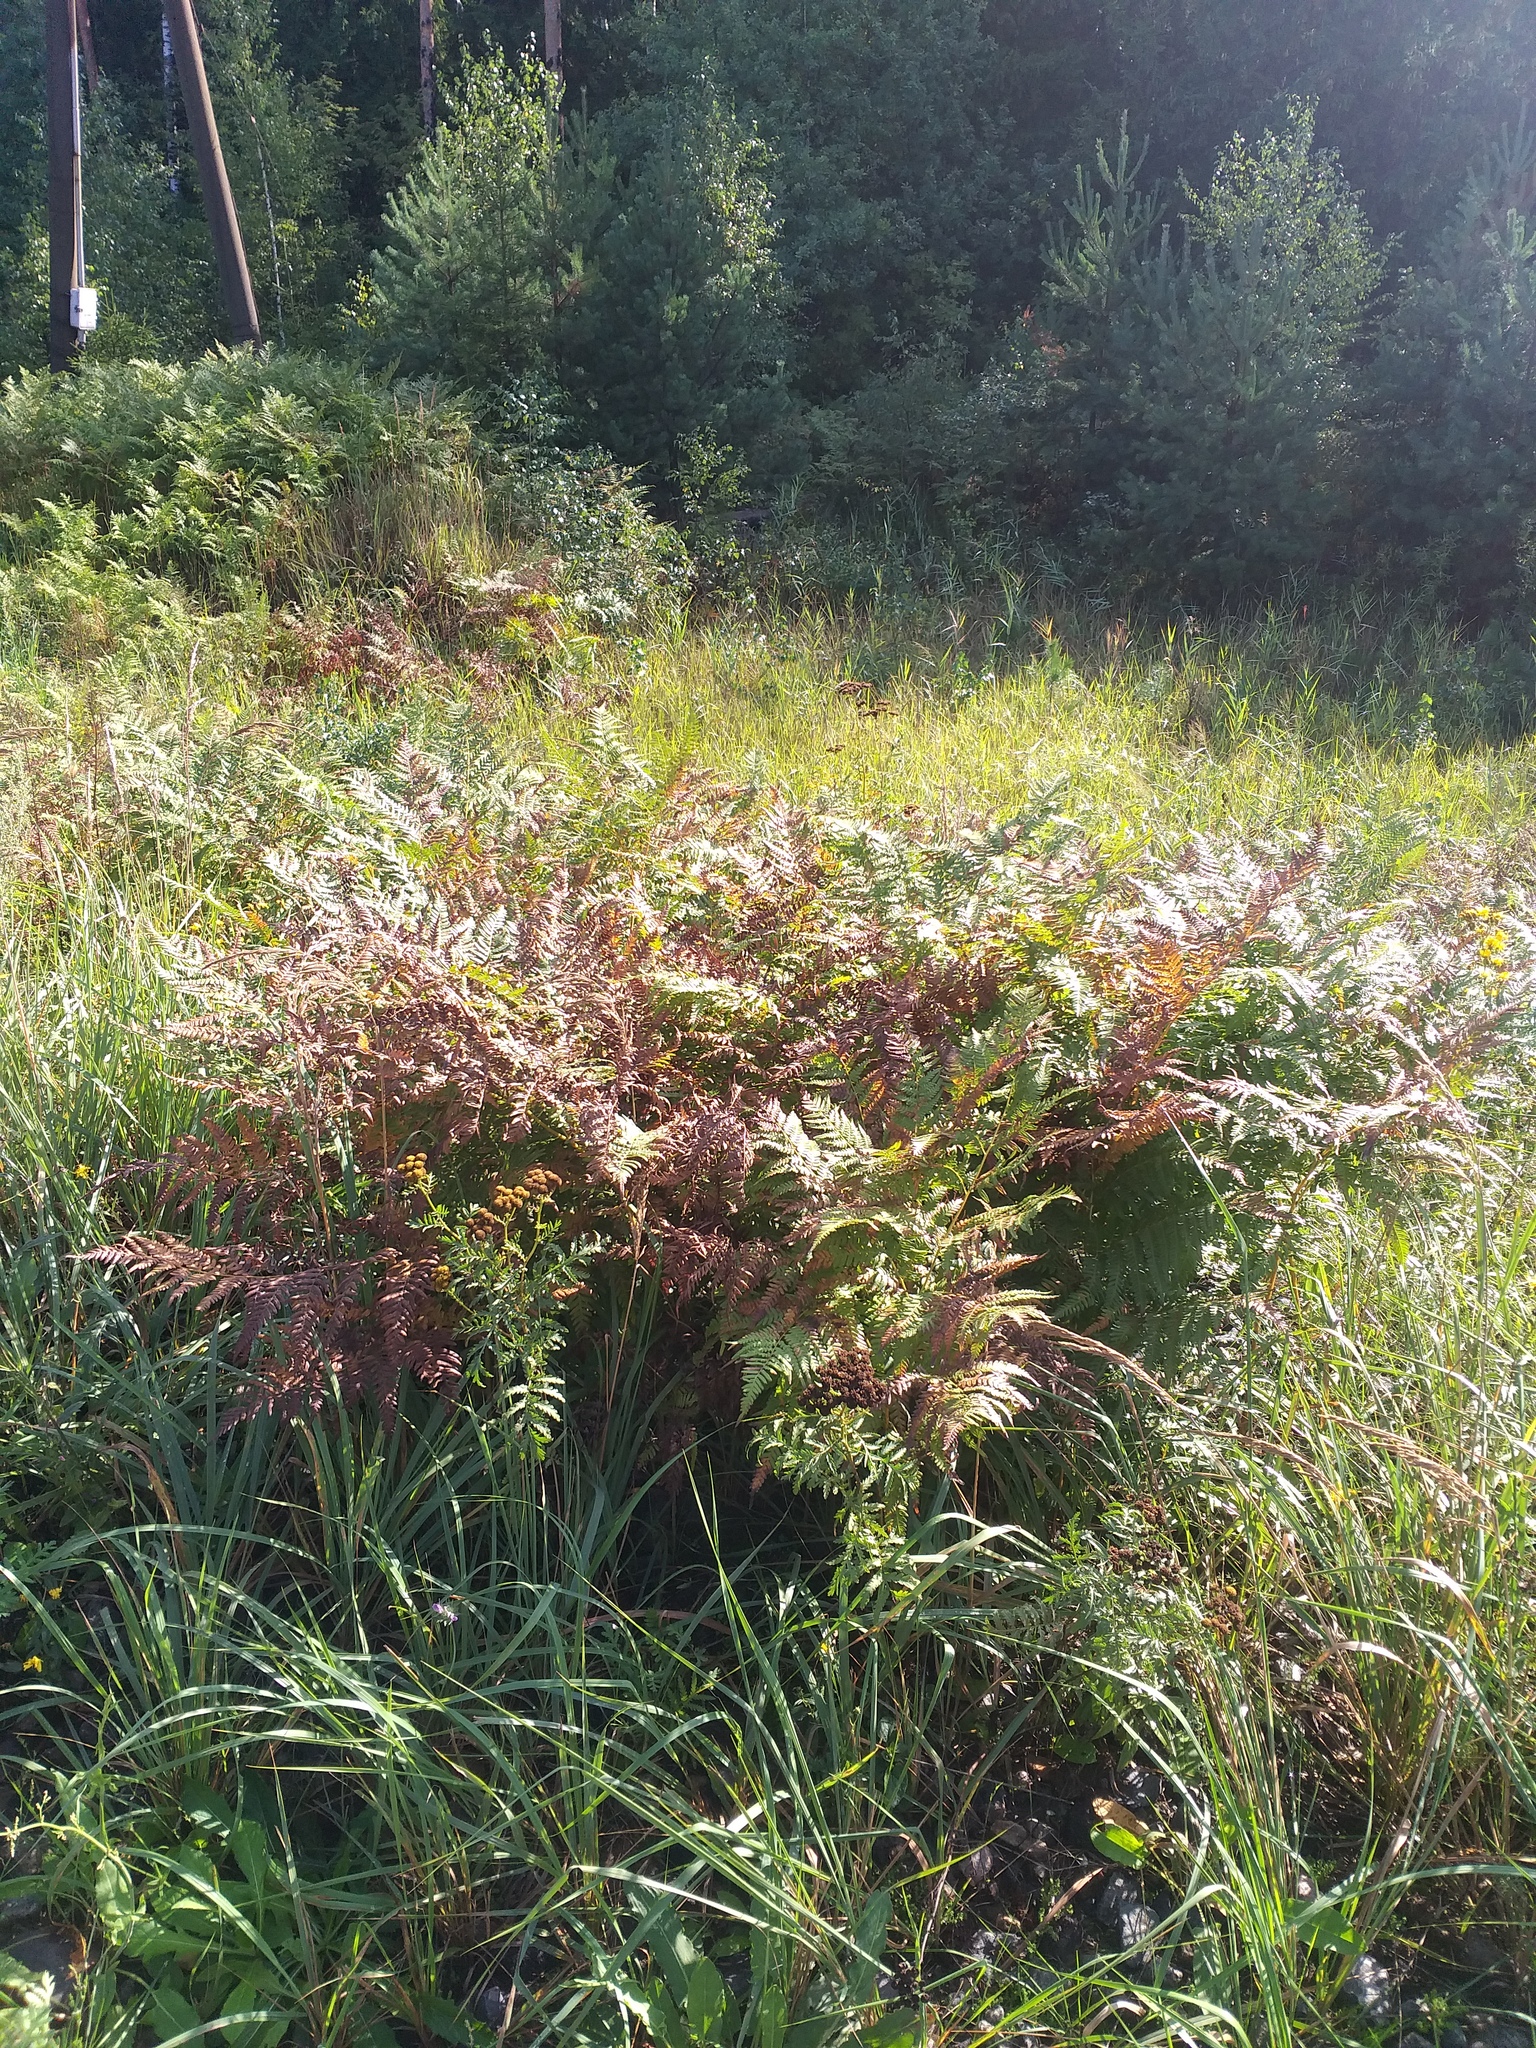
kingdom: Plantae
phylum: Tracheophyta
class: Polypodiopsida
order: Polypodiales
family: Dennstaedtiaceae
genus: Pteridium
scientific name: Pteridium aquilinum
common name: Bracken
